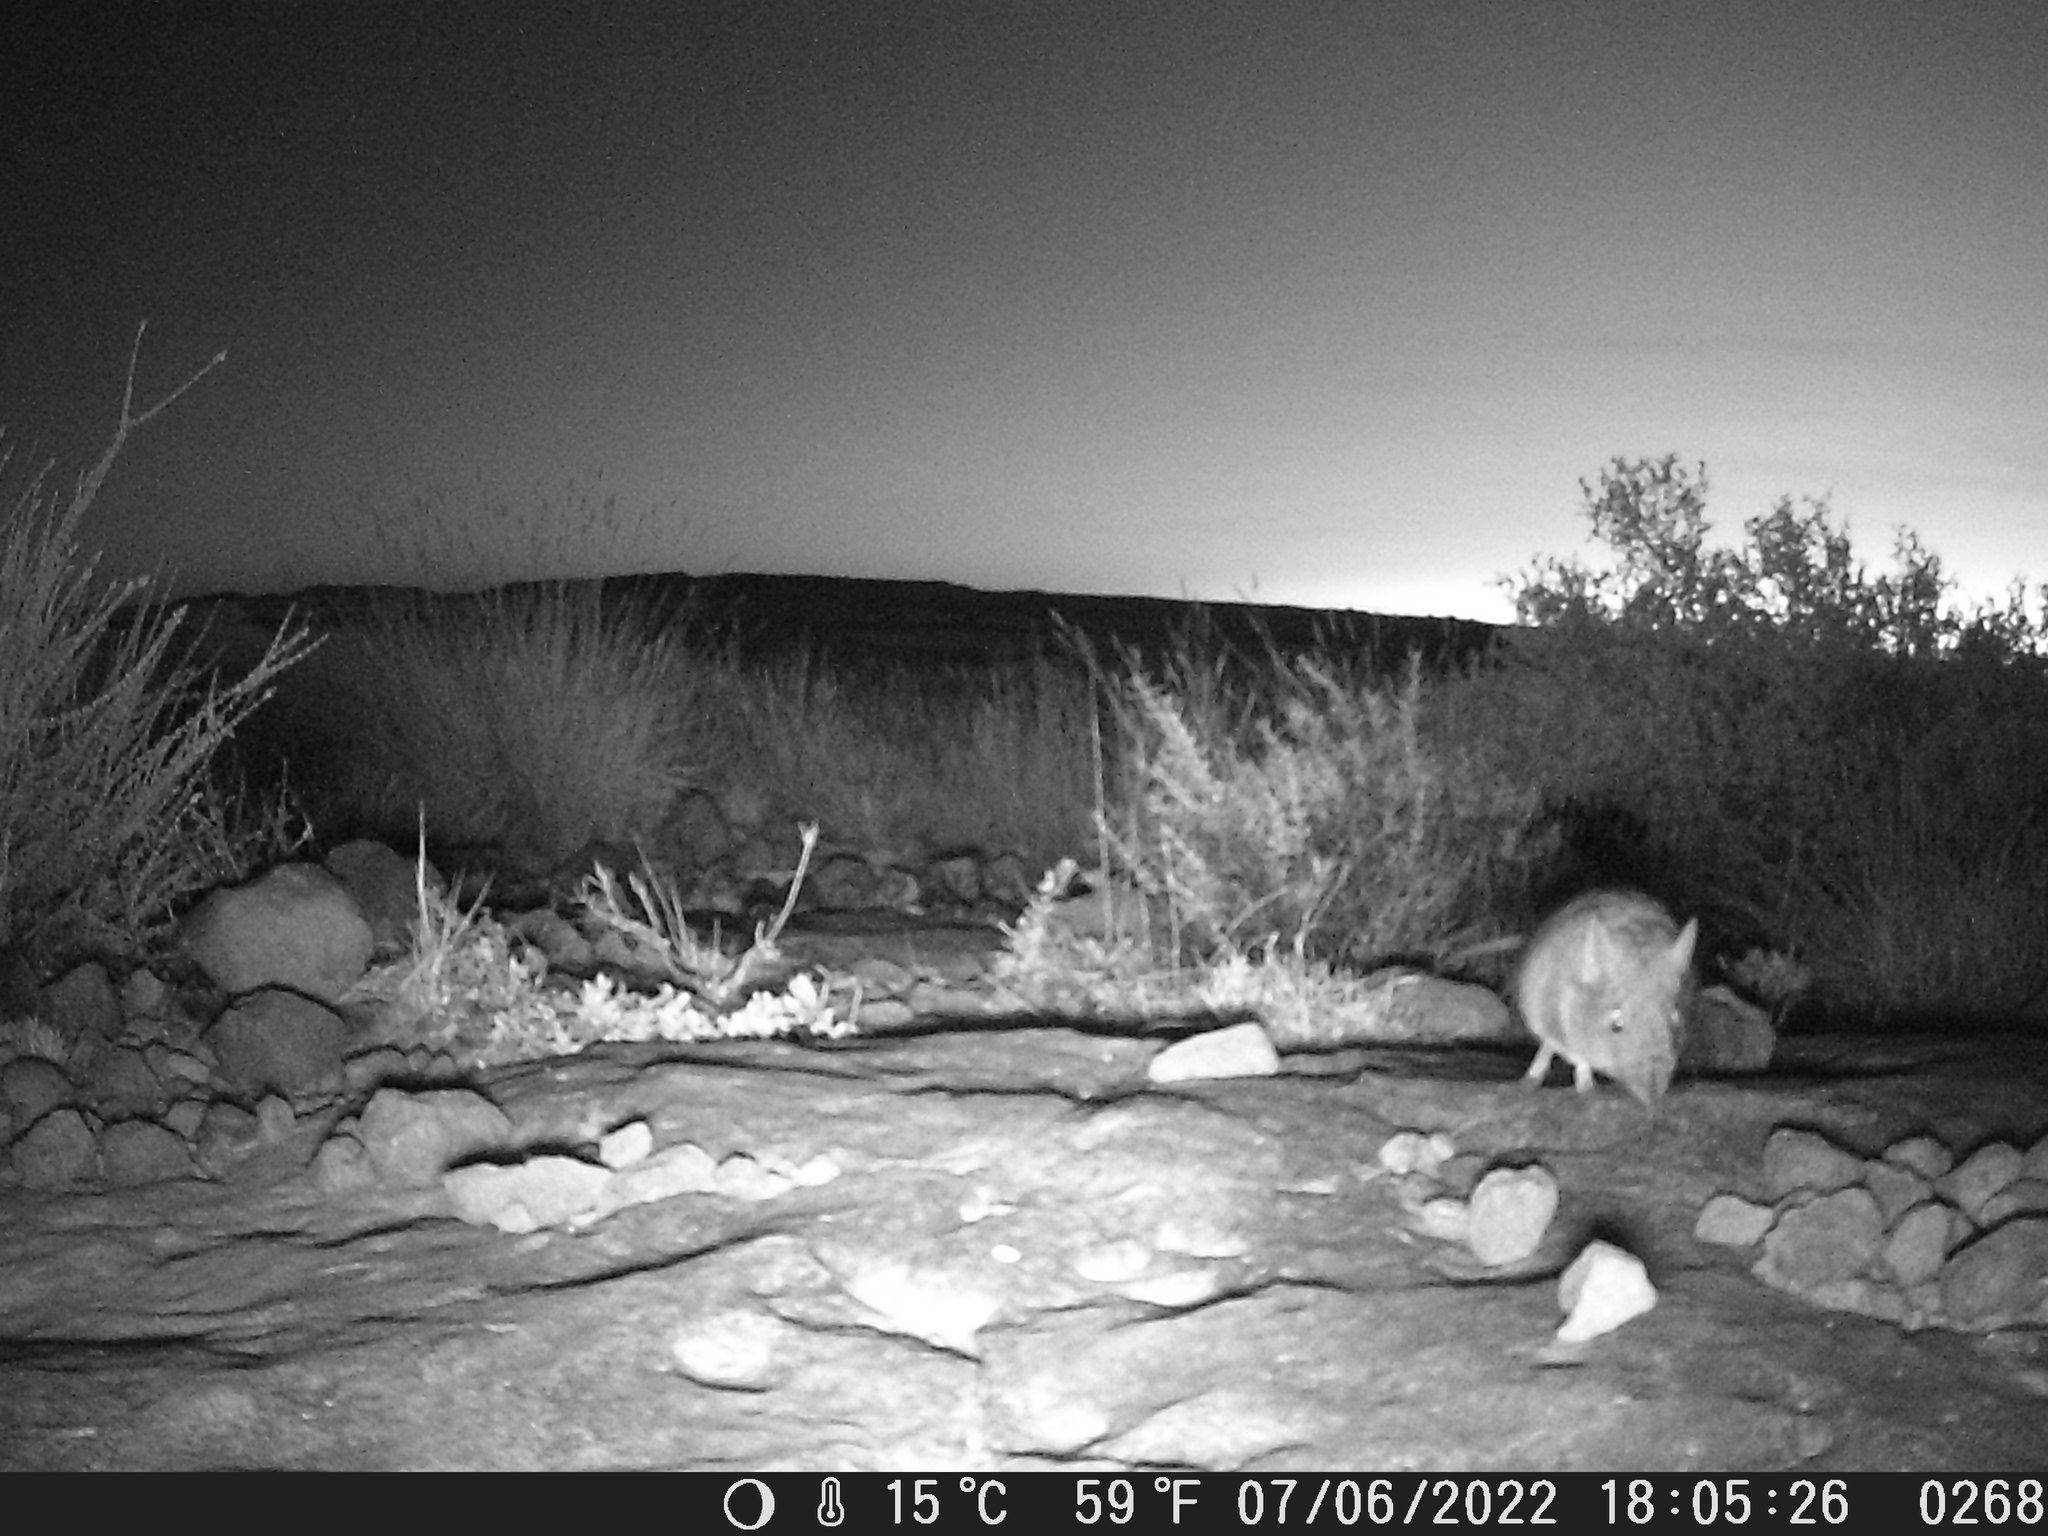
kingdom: Animalia
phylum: Chordata
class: Mammalia
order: Macroscelidea
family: Macroscelididae
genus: Elephantulus
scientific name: Elephantulus myurus
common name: Eastern rock elephant shrew
